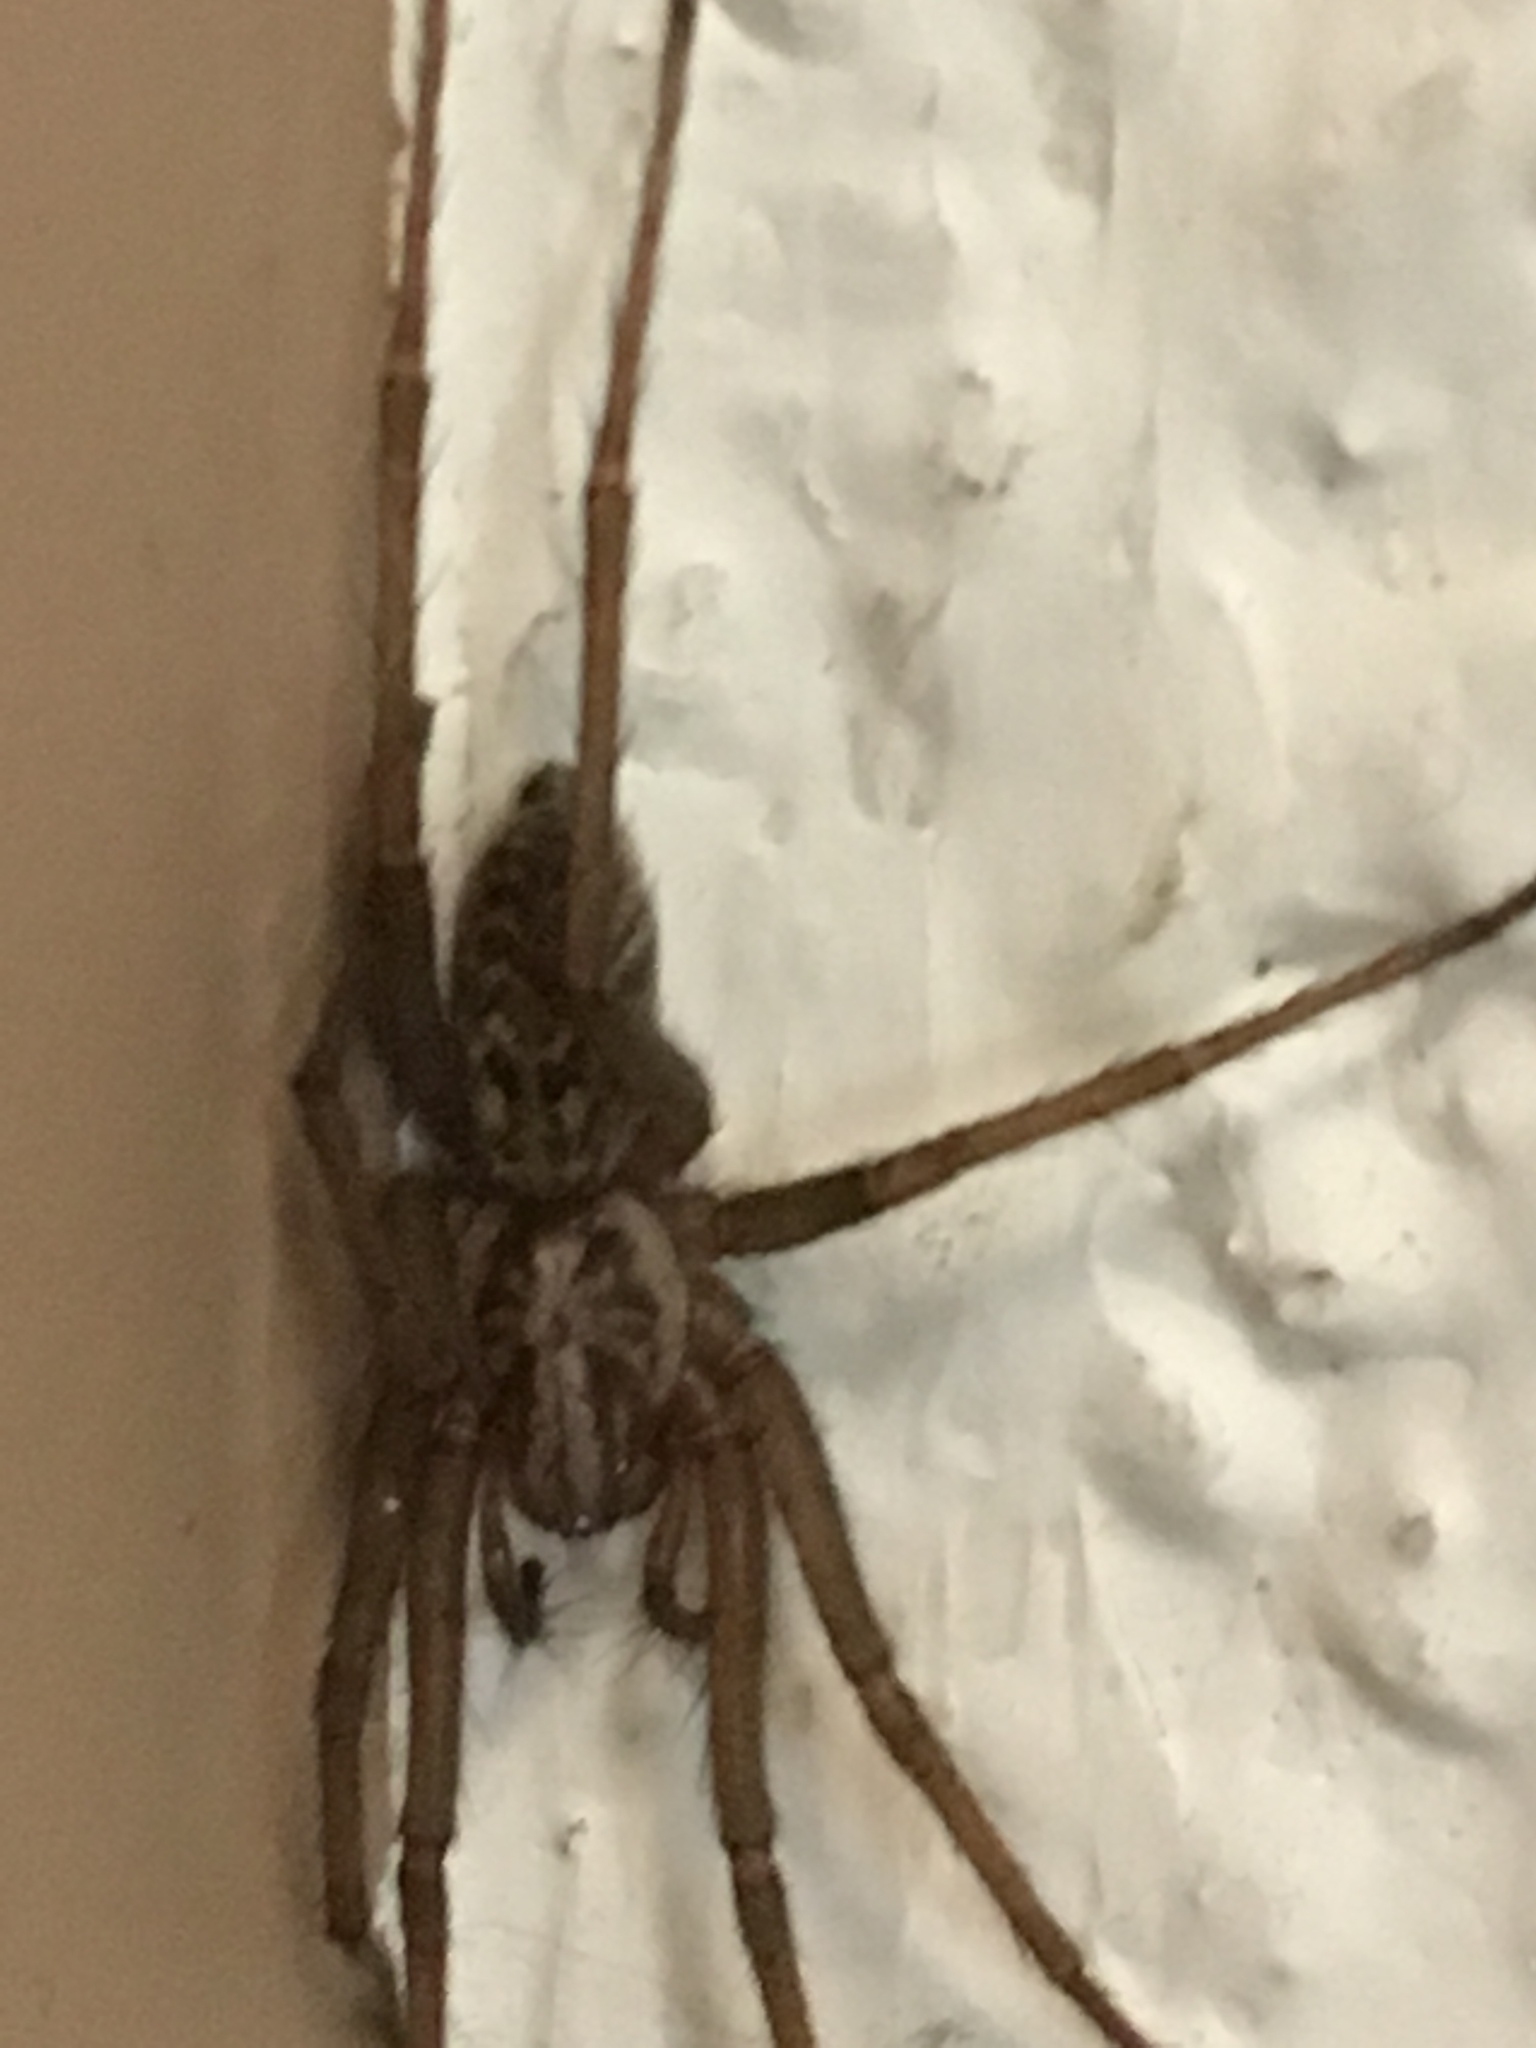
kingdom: Animalia
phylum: Arthropoda
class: Arachnida
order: Araneae
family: Agelenidae
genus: Eratigena
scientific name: Eratigena atrica
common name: Giant house spider
